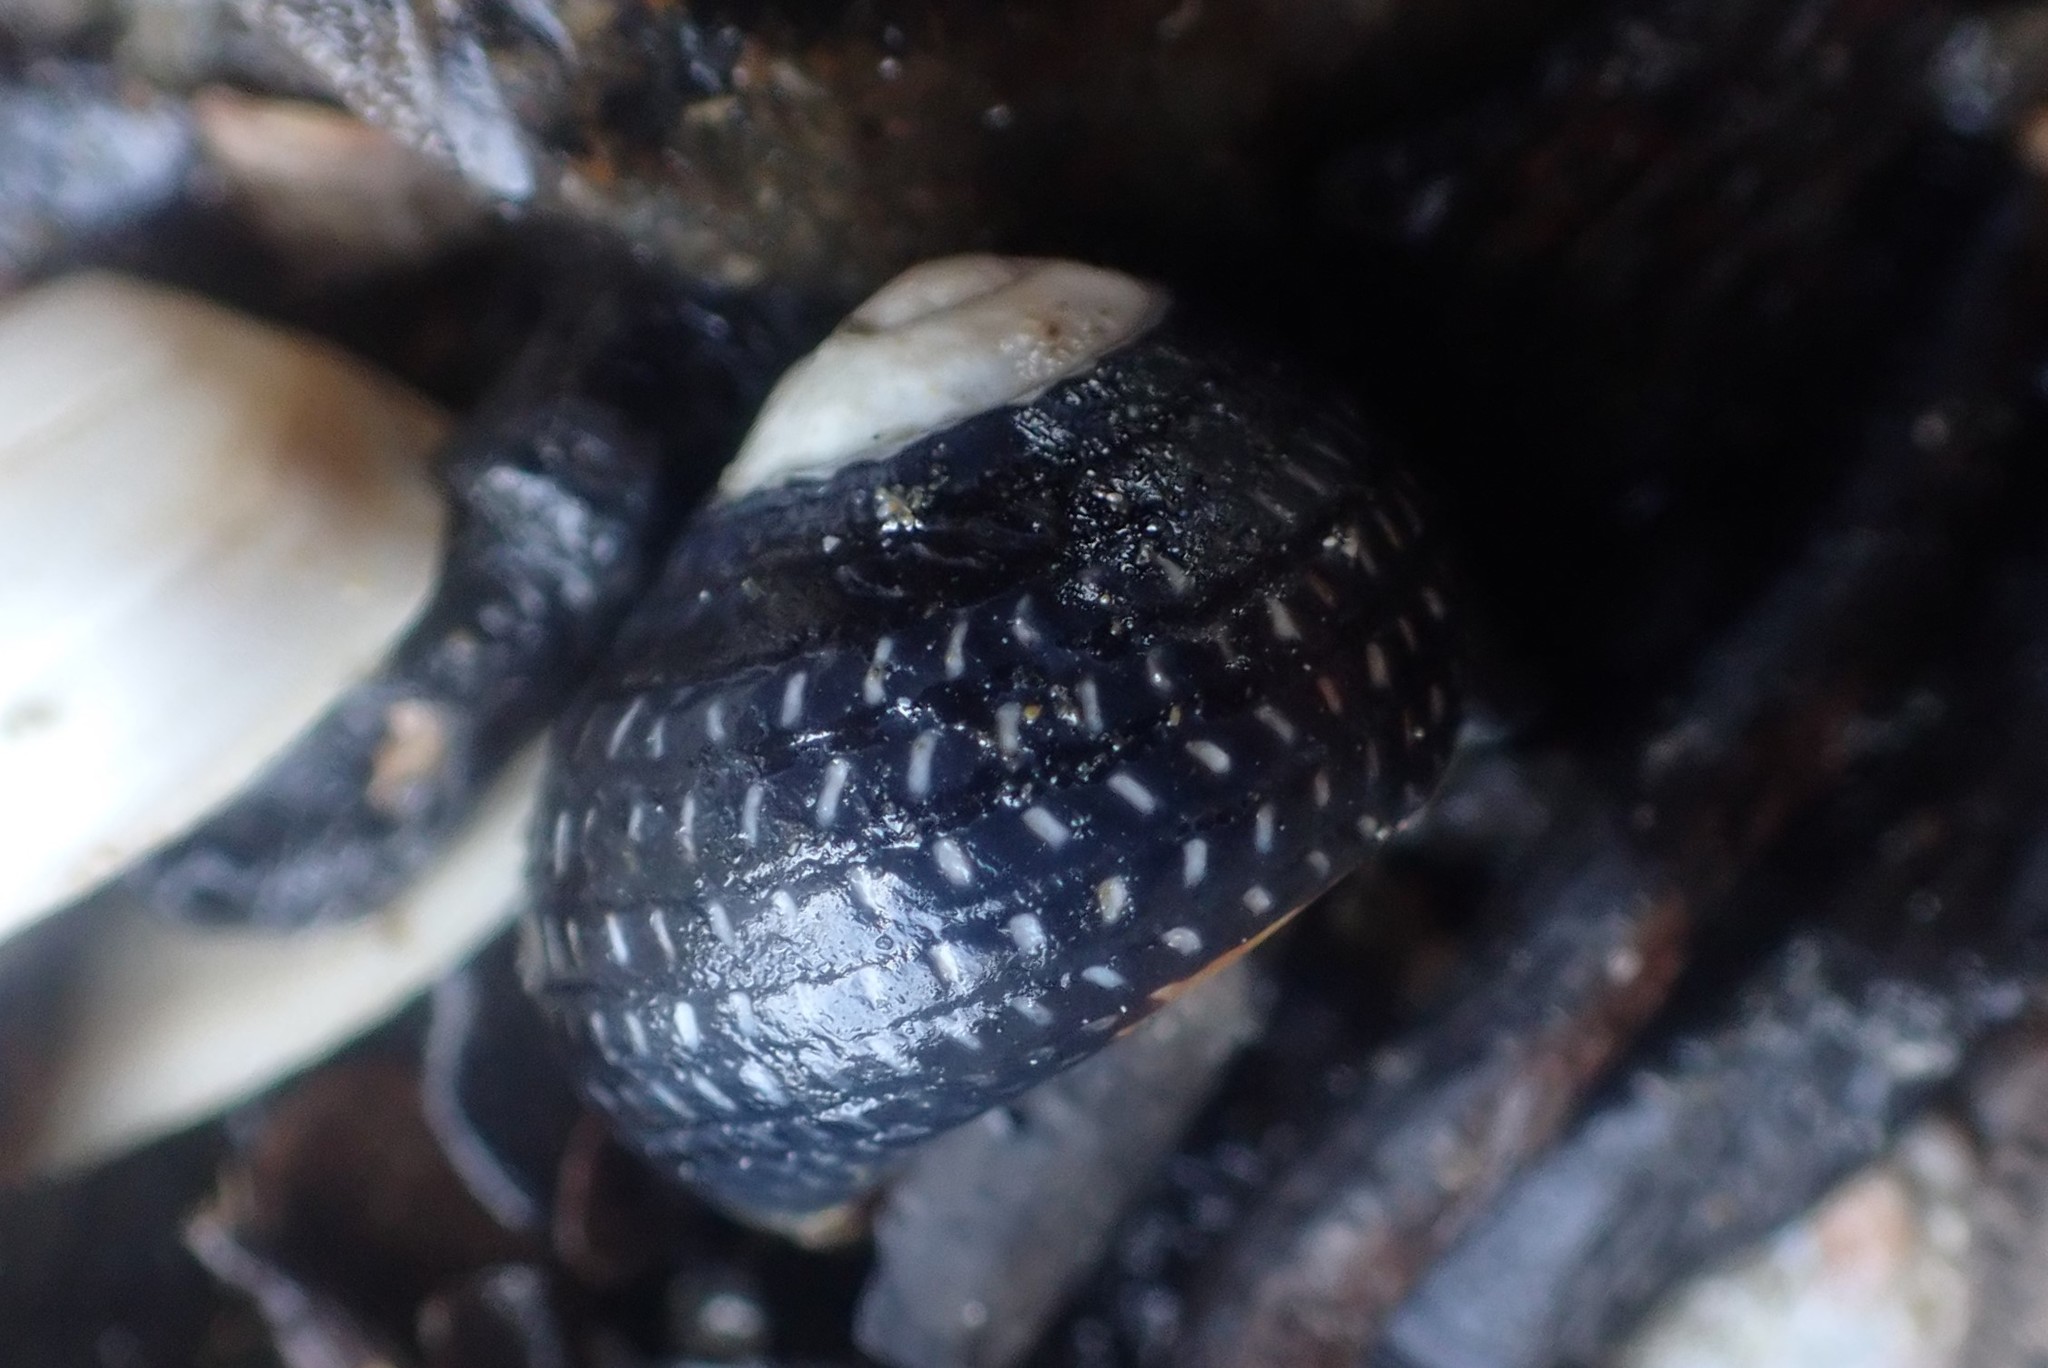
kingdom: Animalia
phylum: Mollusca
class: Gastropoda
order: Trochida
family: Trochidae
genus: Diloma
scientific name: Diloma aethiops
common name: Scorched monodont
